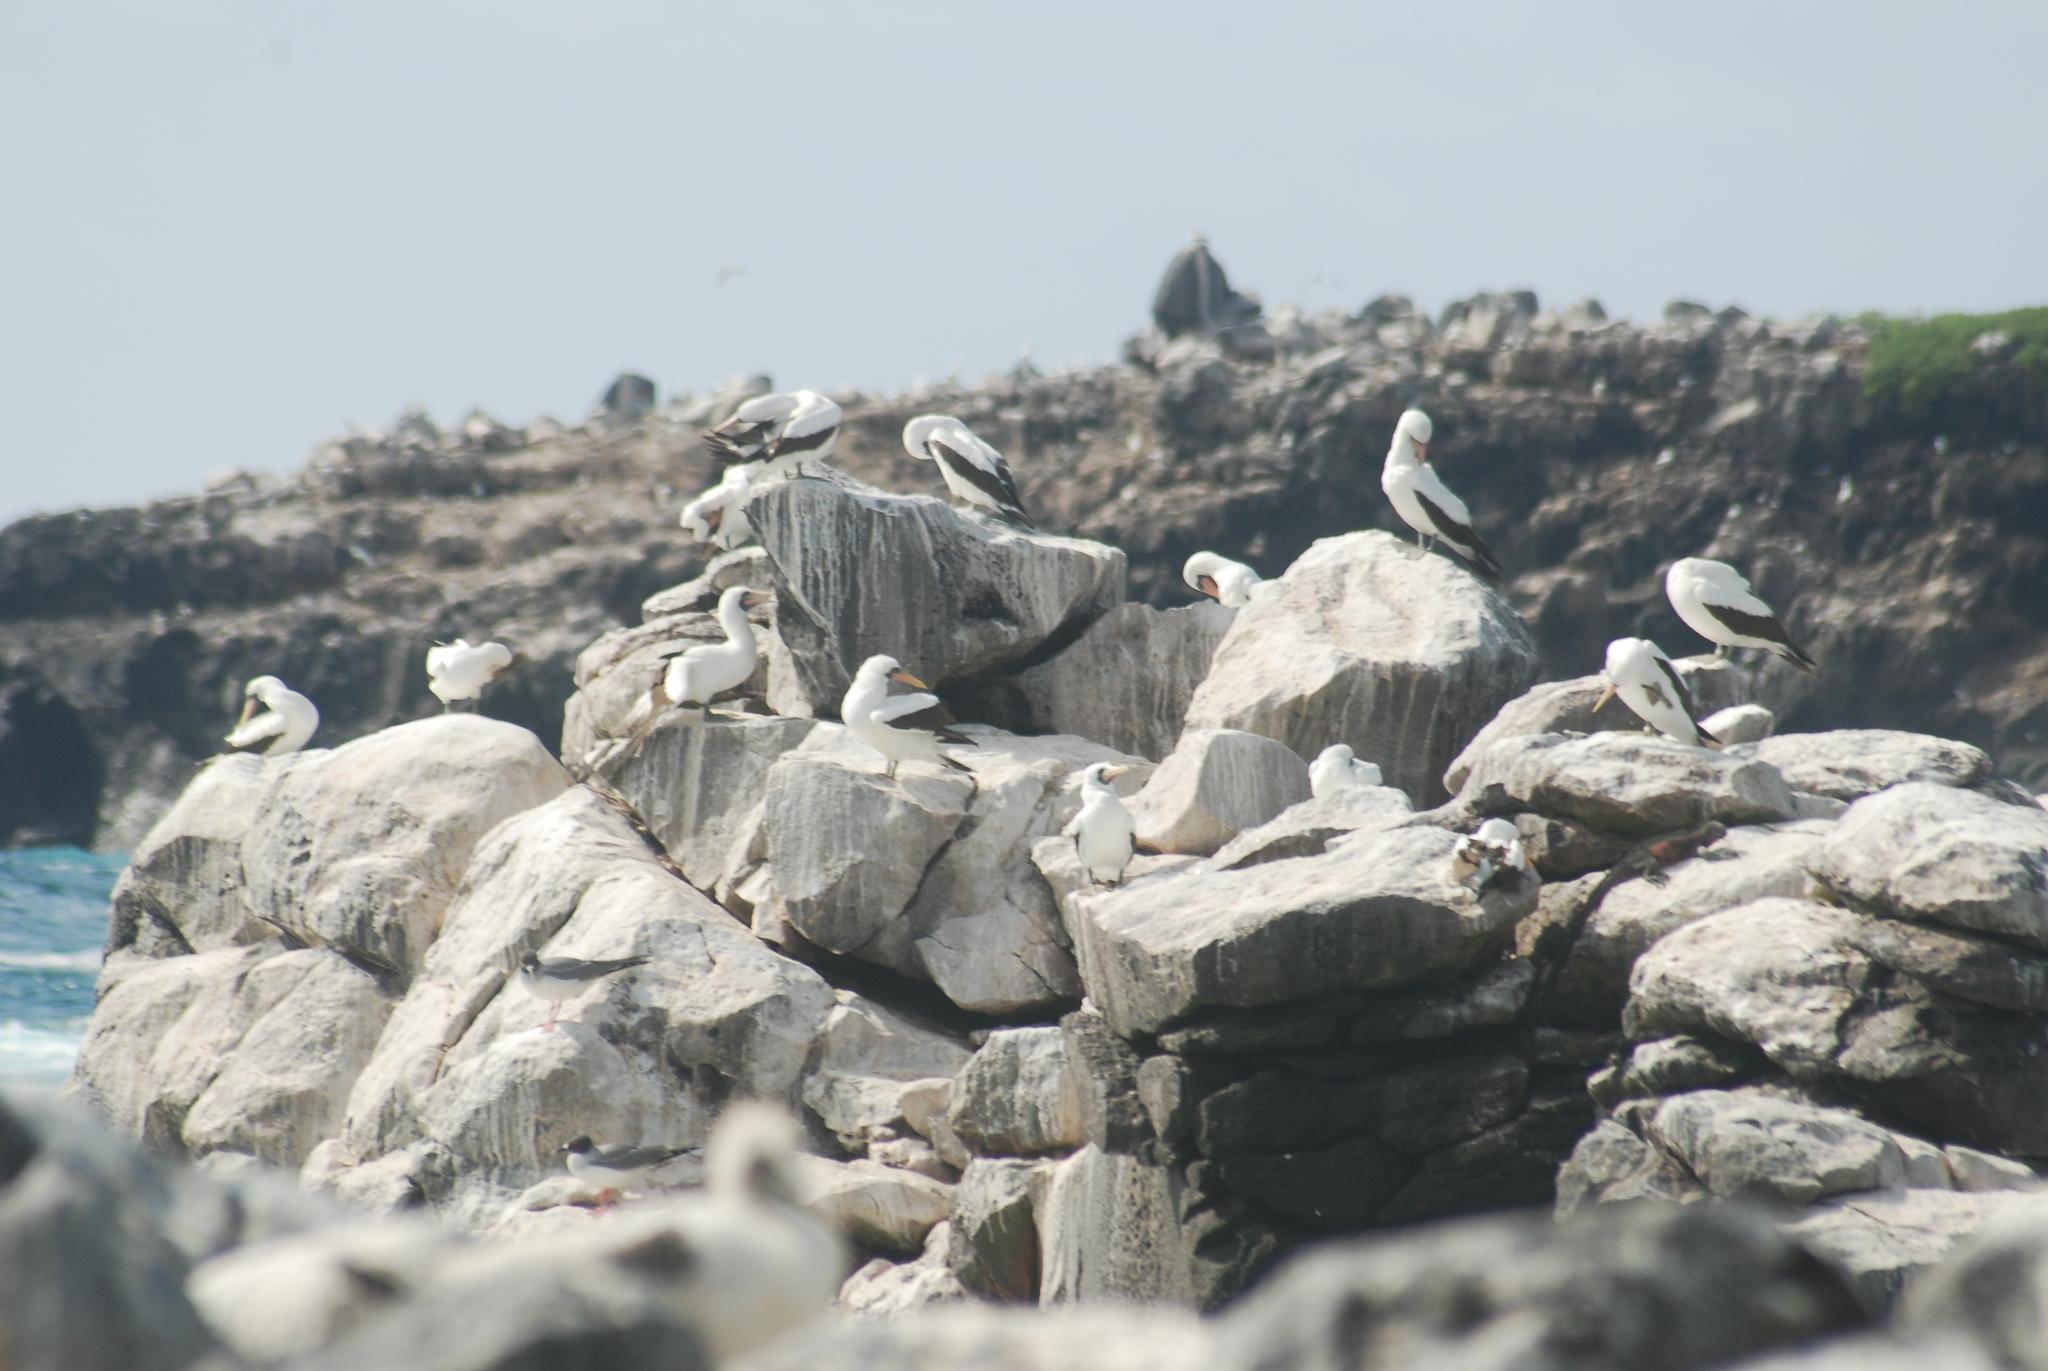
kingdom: Animalia
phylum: Chordata
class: Aves
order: Suliformes
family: Sulidae
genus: Sula
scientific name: Sula granti
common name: Nazca booby
